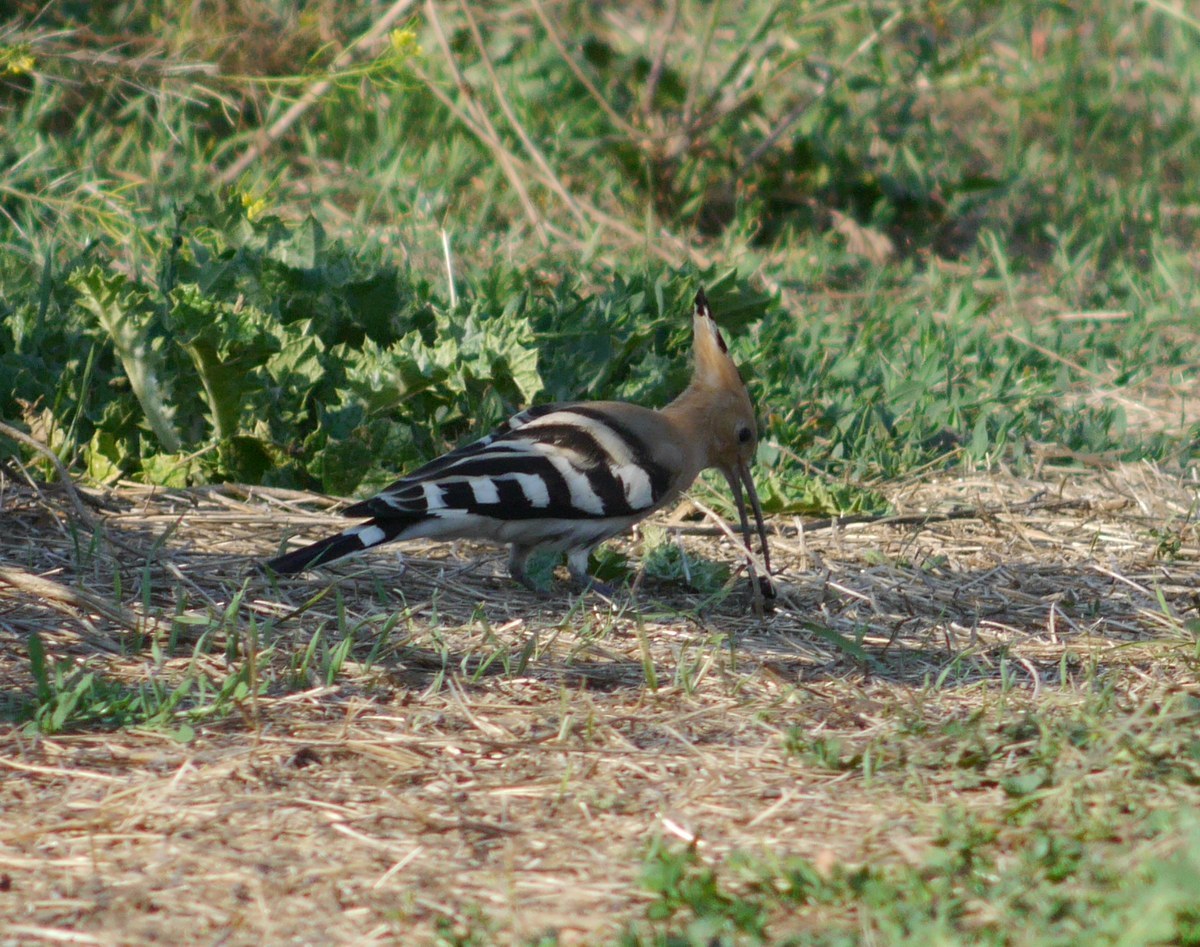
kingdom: Animalia
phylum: Chordata
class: Aves
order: Bucerotiformes
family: Upupidae
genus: Upupa
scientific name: Upupa epops
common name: Eurasian hoopoe
